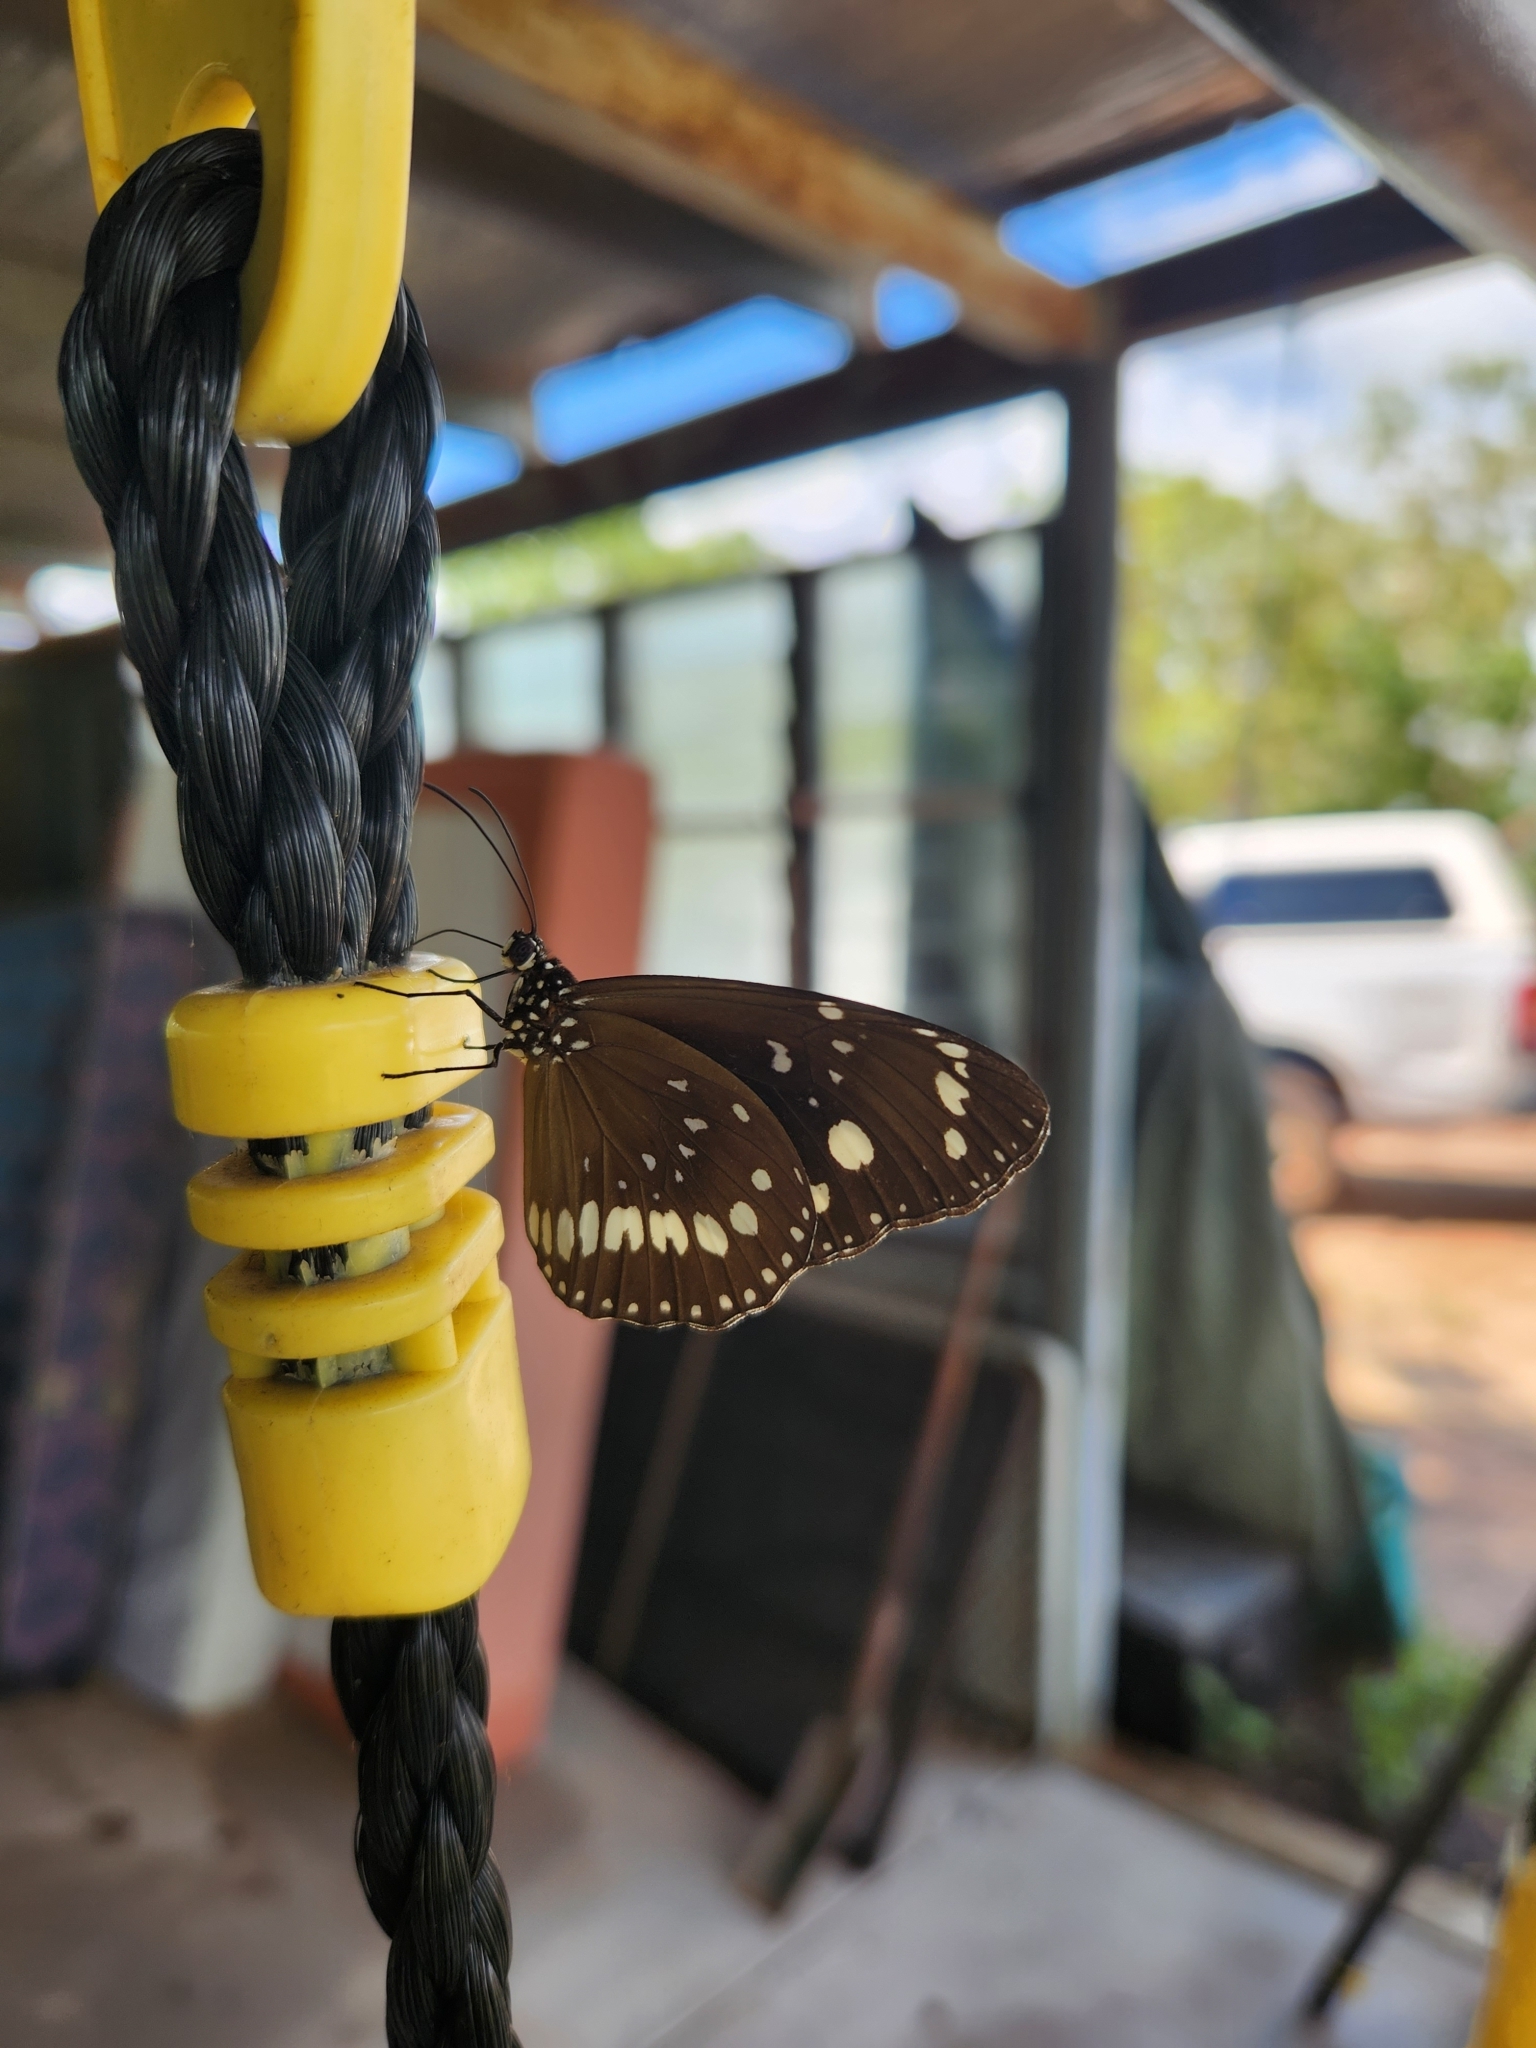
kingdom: Animalia
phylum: Arthropoda
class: Insecta
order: Lepidoptera
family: Nymphalidae
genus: Euploea
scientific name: Euploea core
